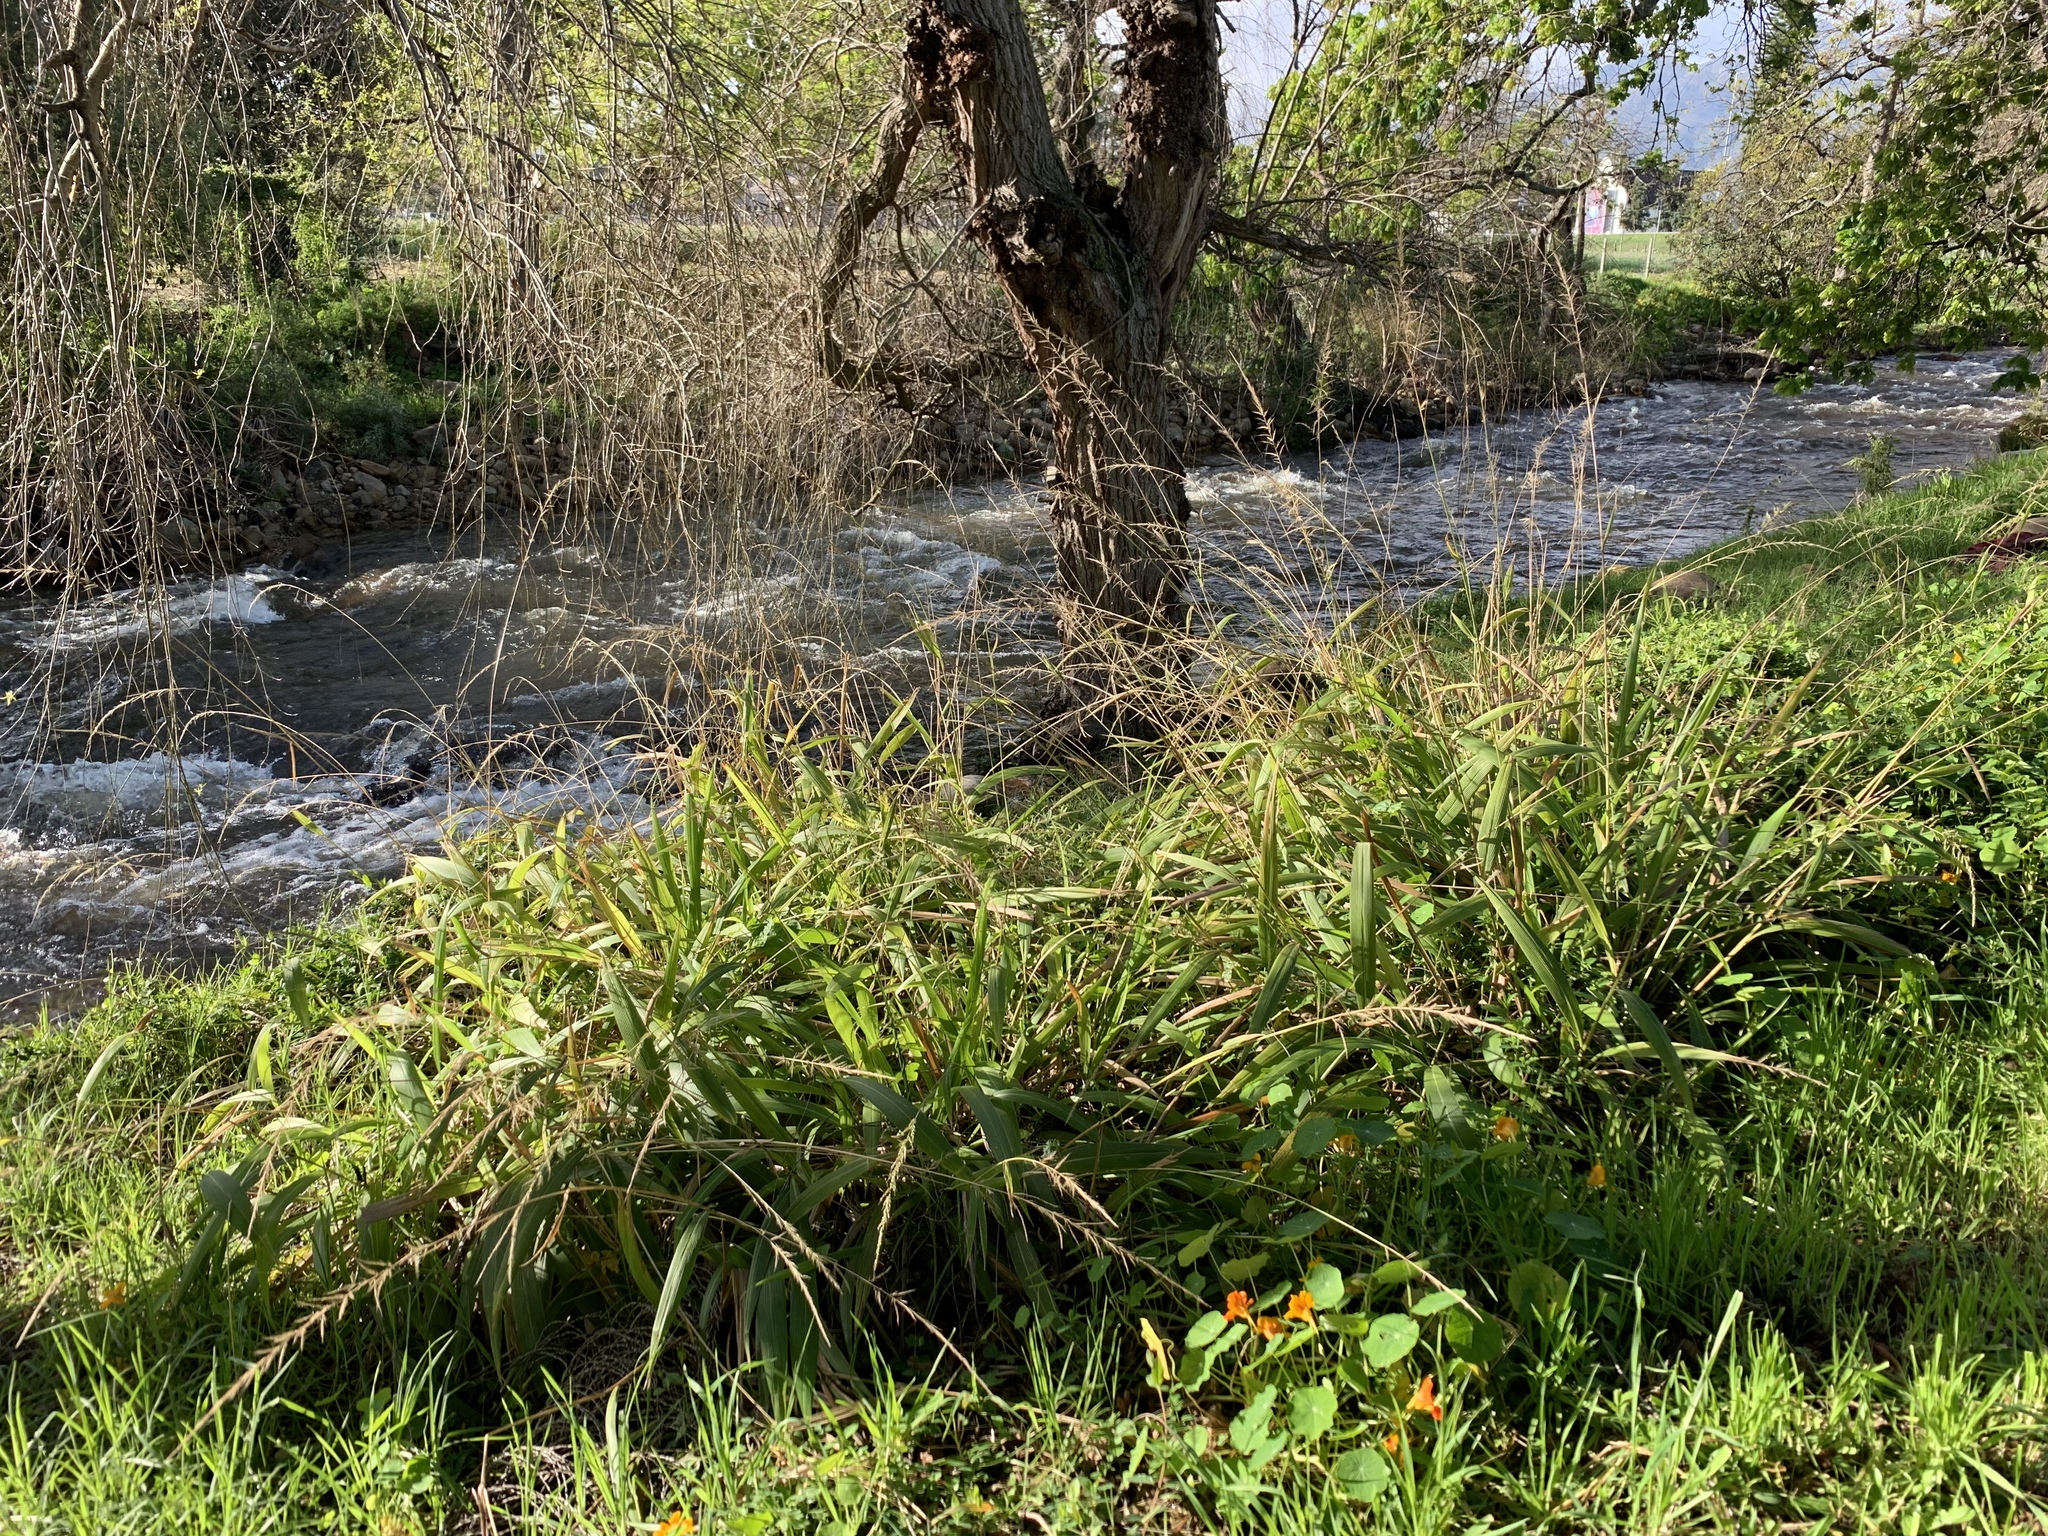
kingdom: Plantae
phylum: Tracheophyta
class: Liliopsida
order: Poales
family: Poaceae
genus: Setaria
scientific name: Setaria megaphylla
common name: Bigleaf bristlegrass
